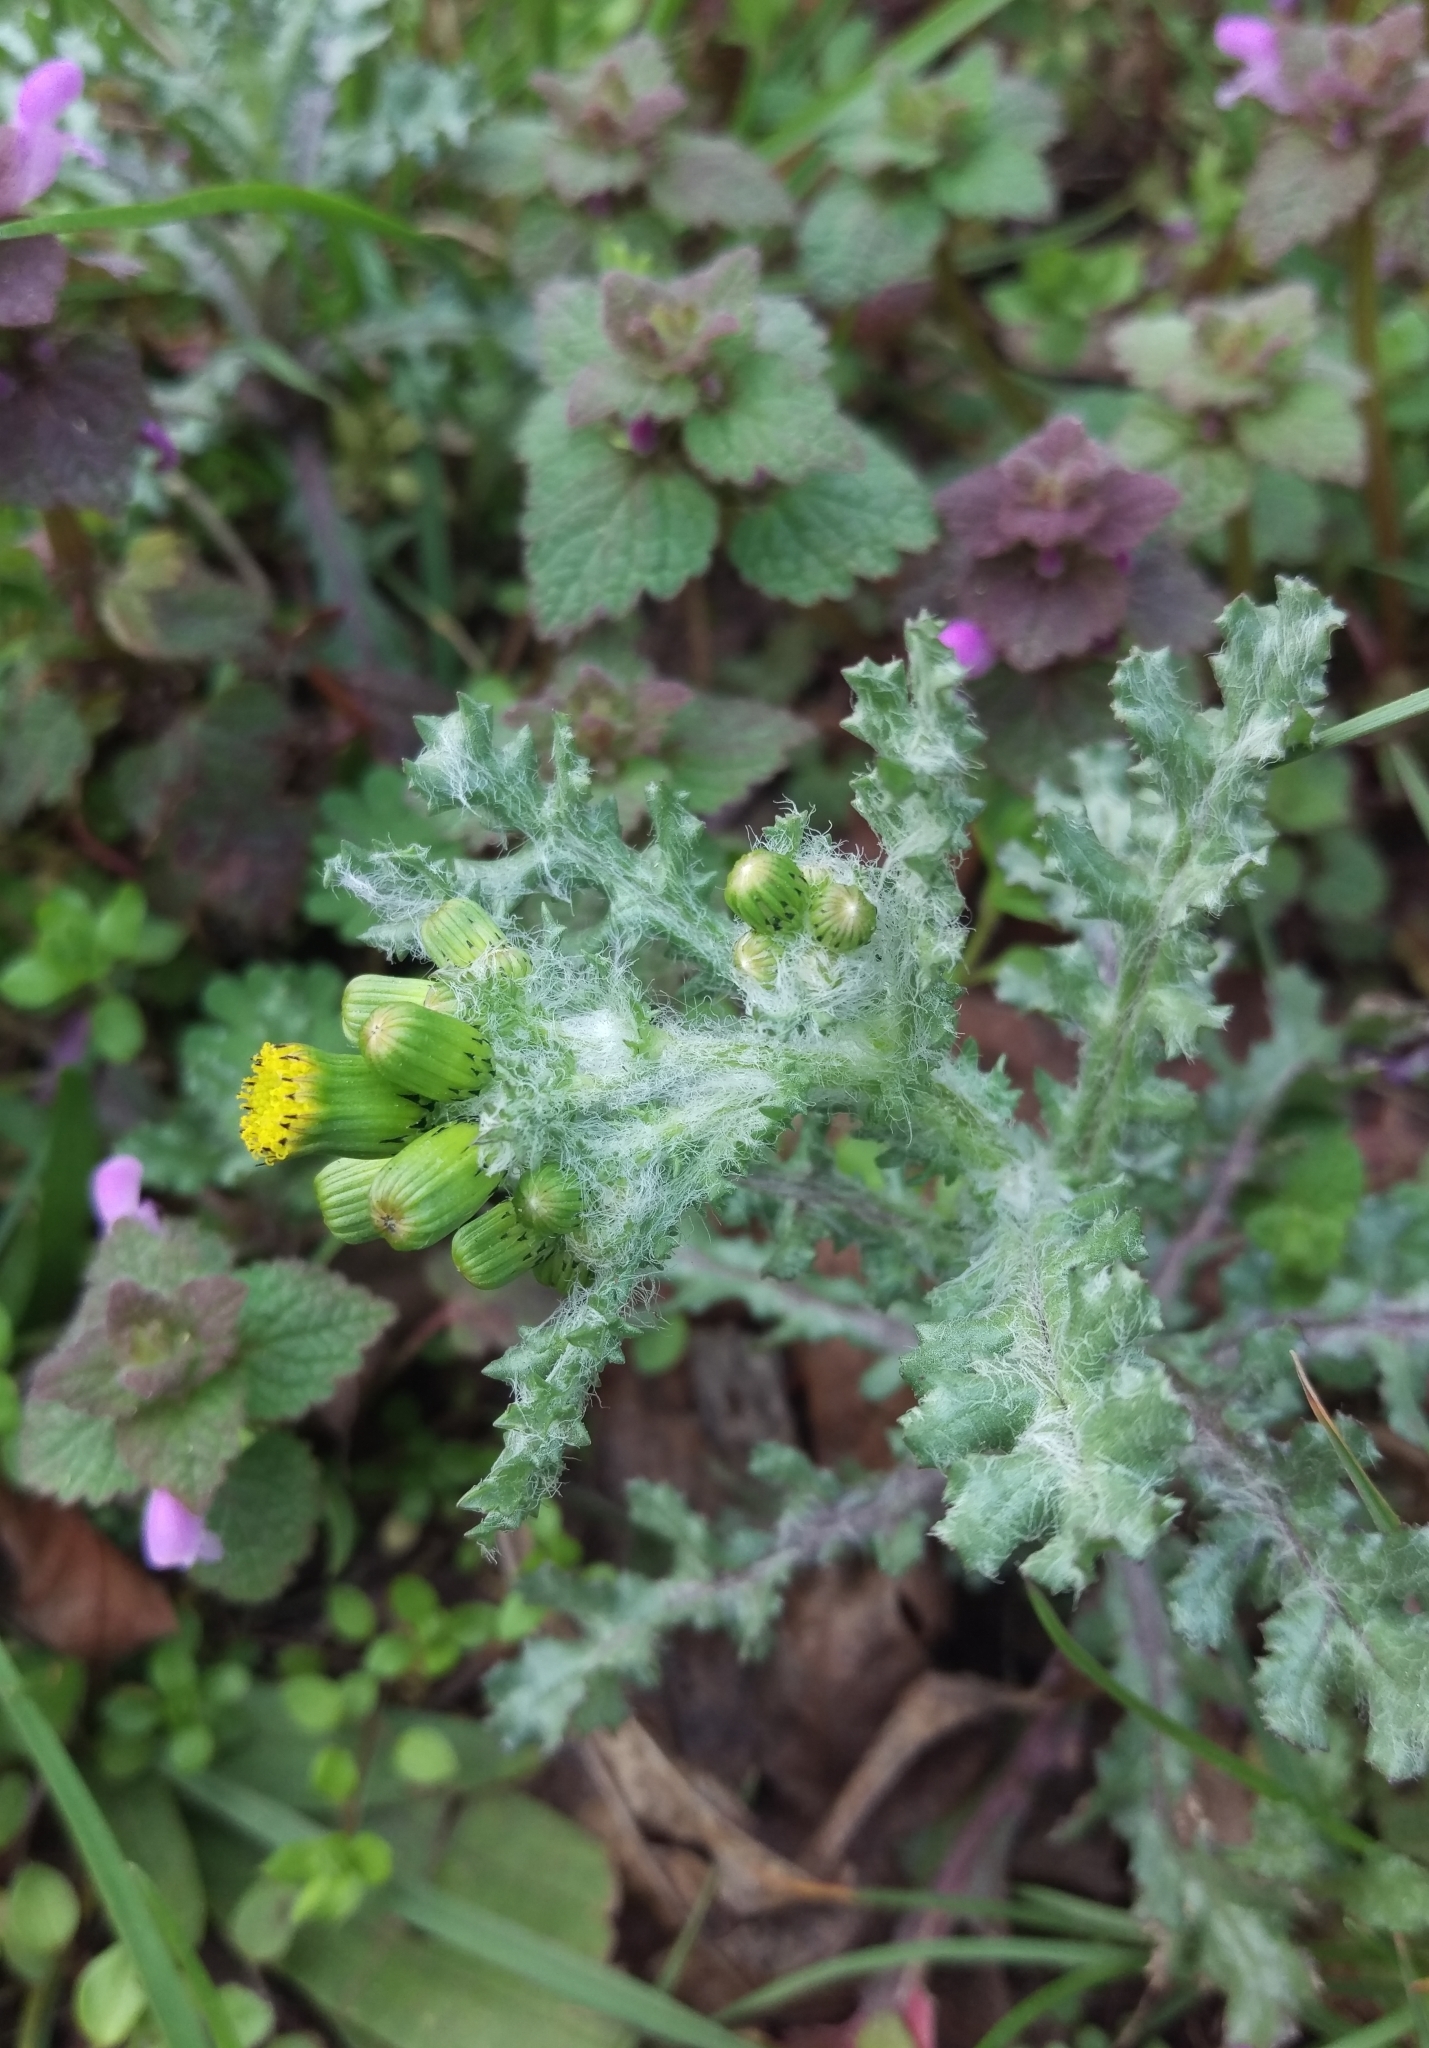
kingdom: Plantae
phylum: Tracheophyta
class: Magnoliopsida
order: Asterales
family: Asteraceae
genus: Senecio
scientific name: Senecio vulgaris
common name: Old-man-in-the-spring
